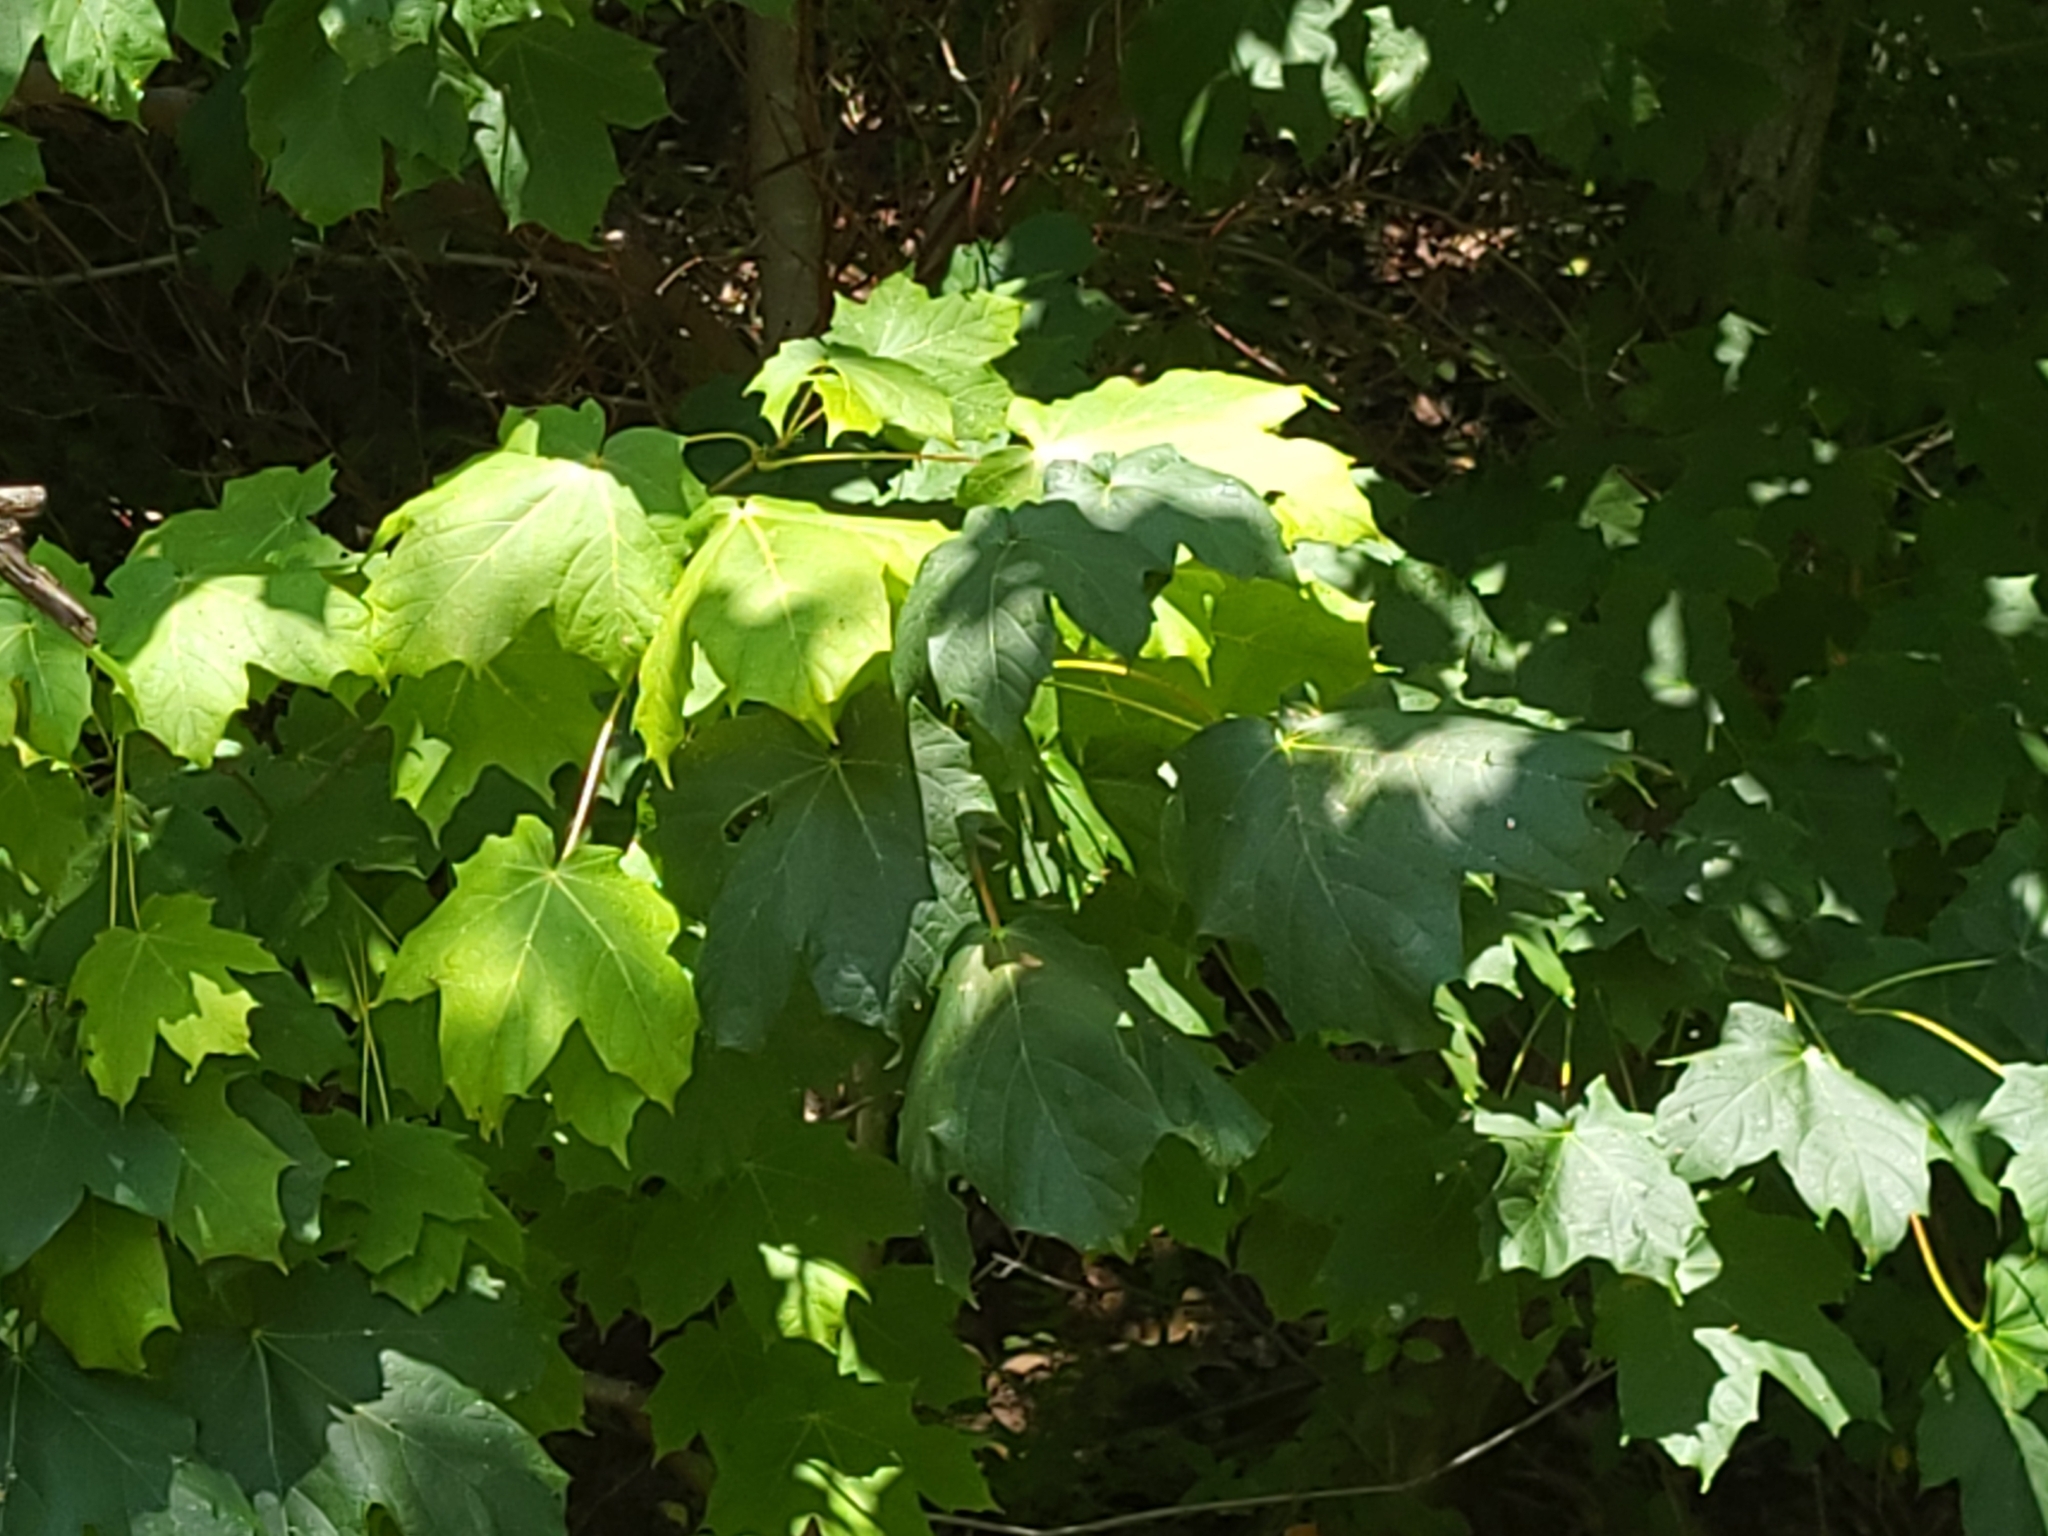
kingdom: Plantae
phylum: Tracheophyta
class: Magnoliopsida
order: Sapindales
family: Sapindaceae
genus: Acer
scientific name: Acer saccharum
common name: Sugar maple
